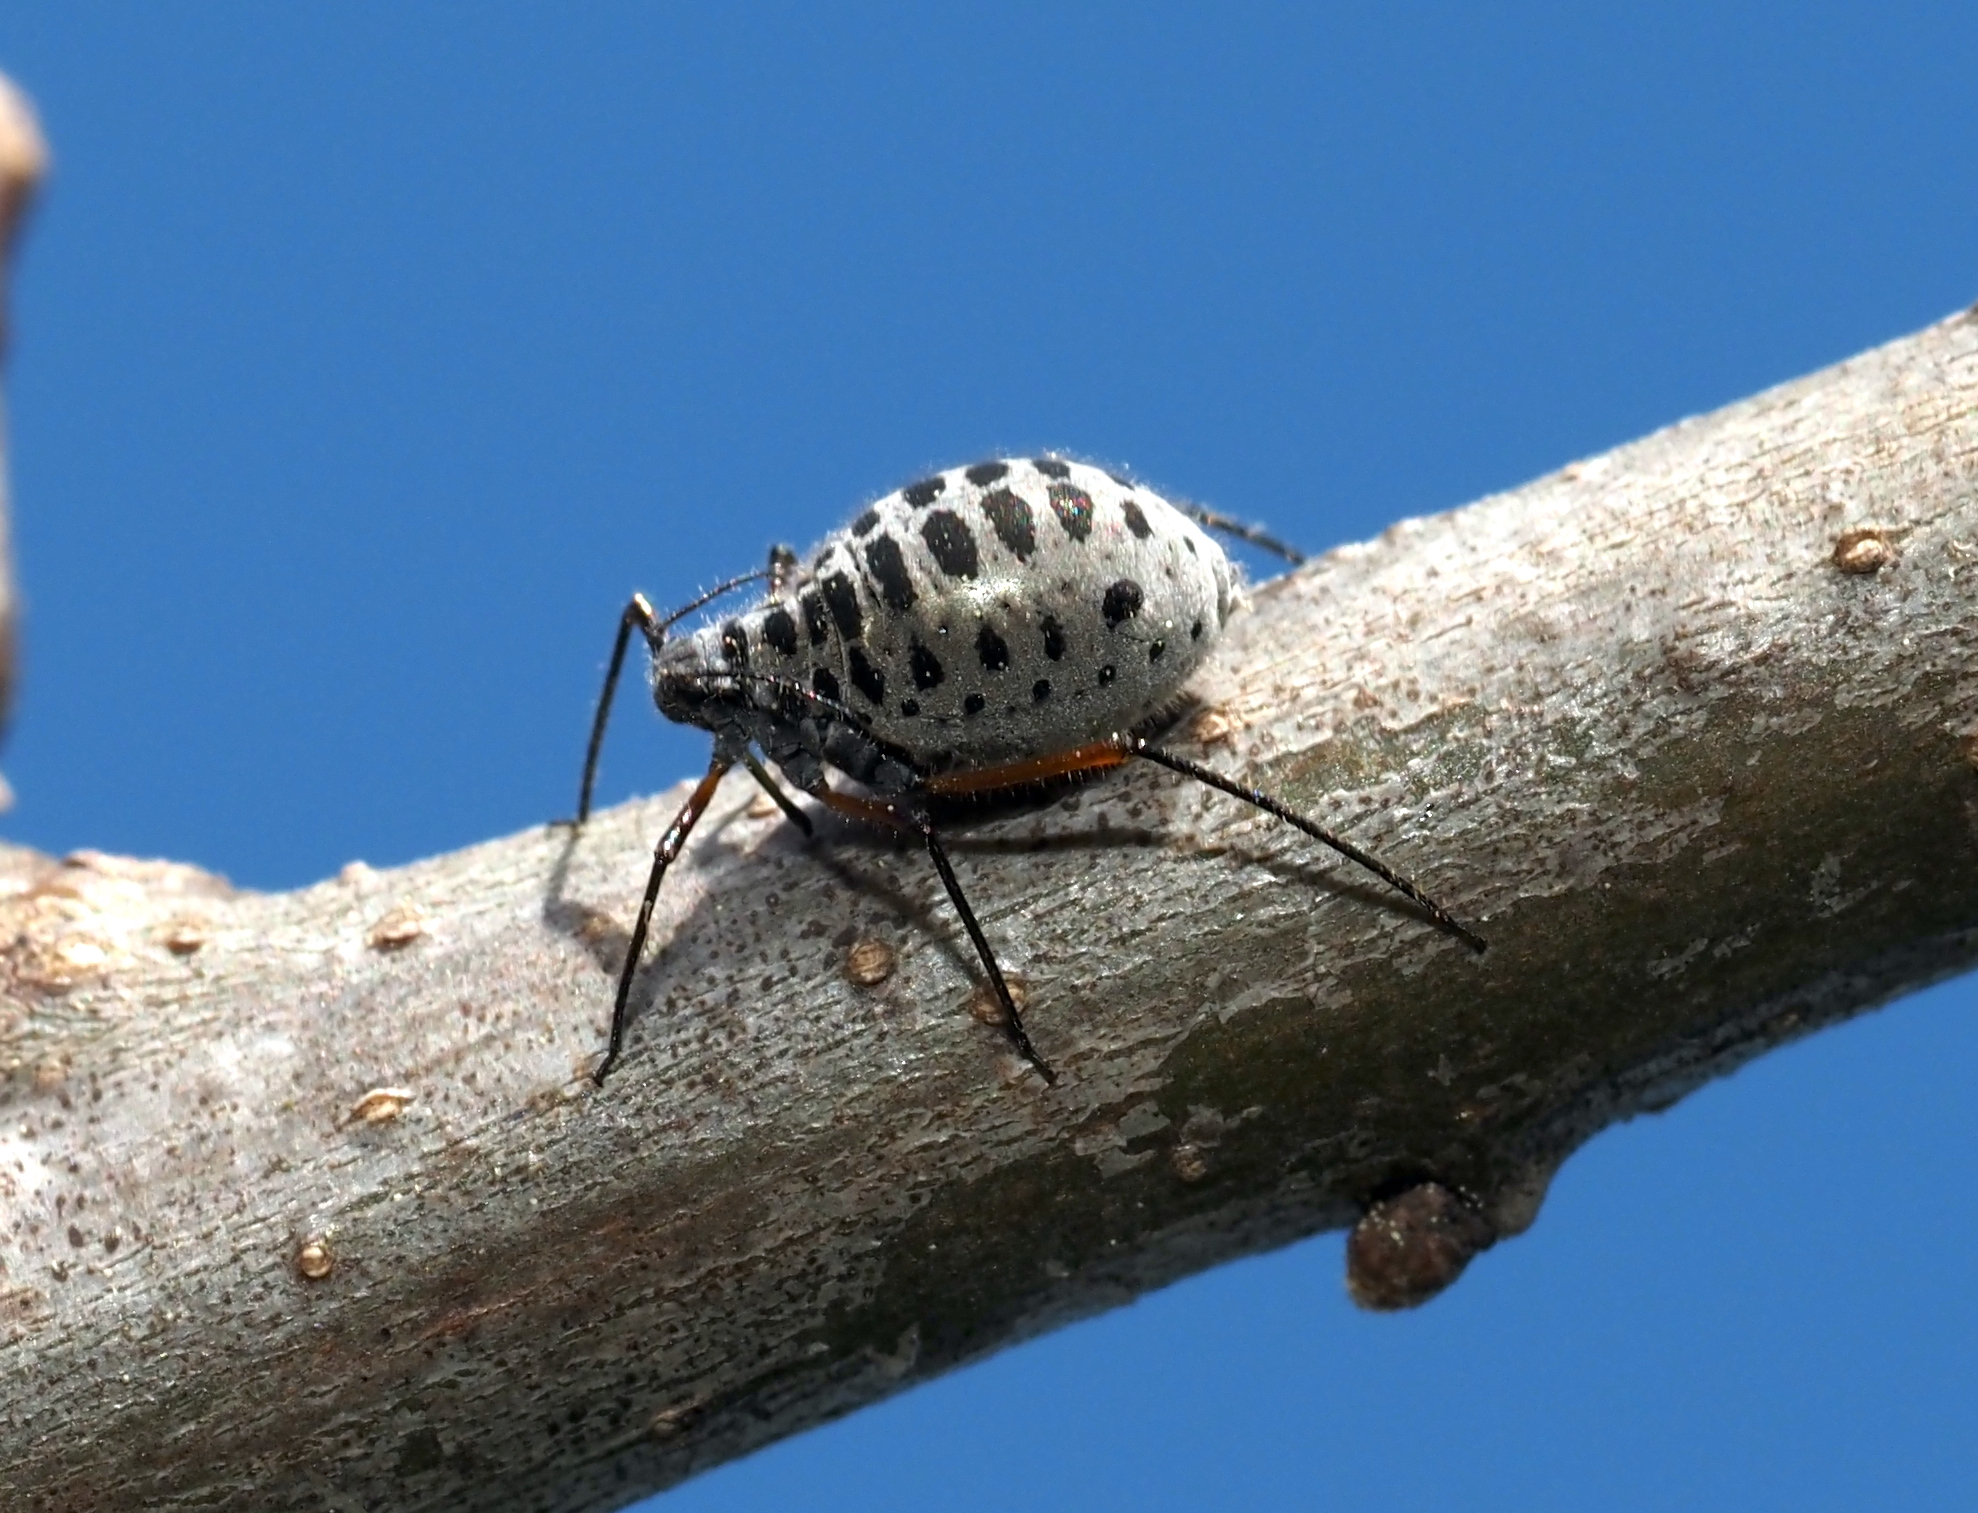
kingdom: Animalia
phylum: Arthropoda
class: Insecta
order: Hemiptera
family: Aphididae
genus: Longistigma
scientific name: Longistigma caryae
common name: Giant bark aphid
